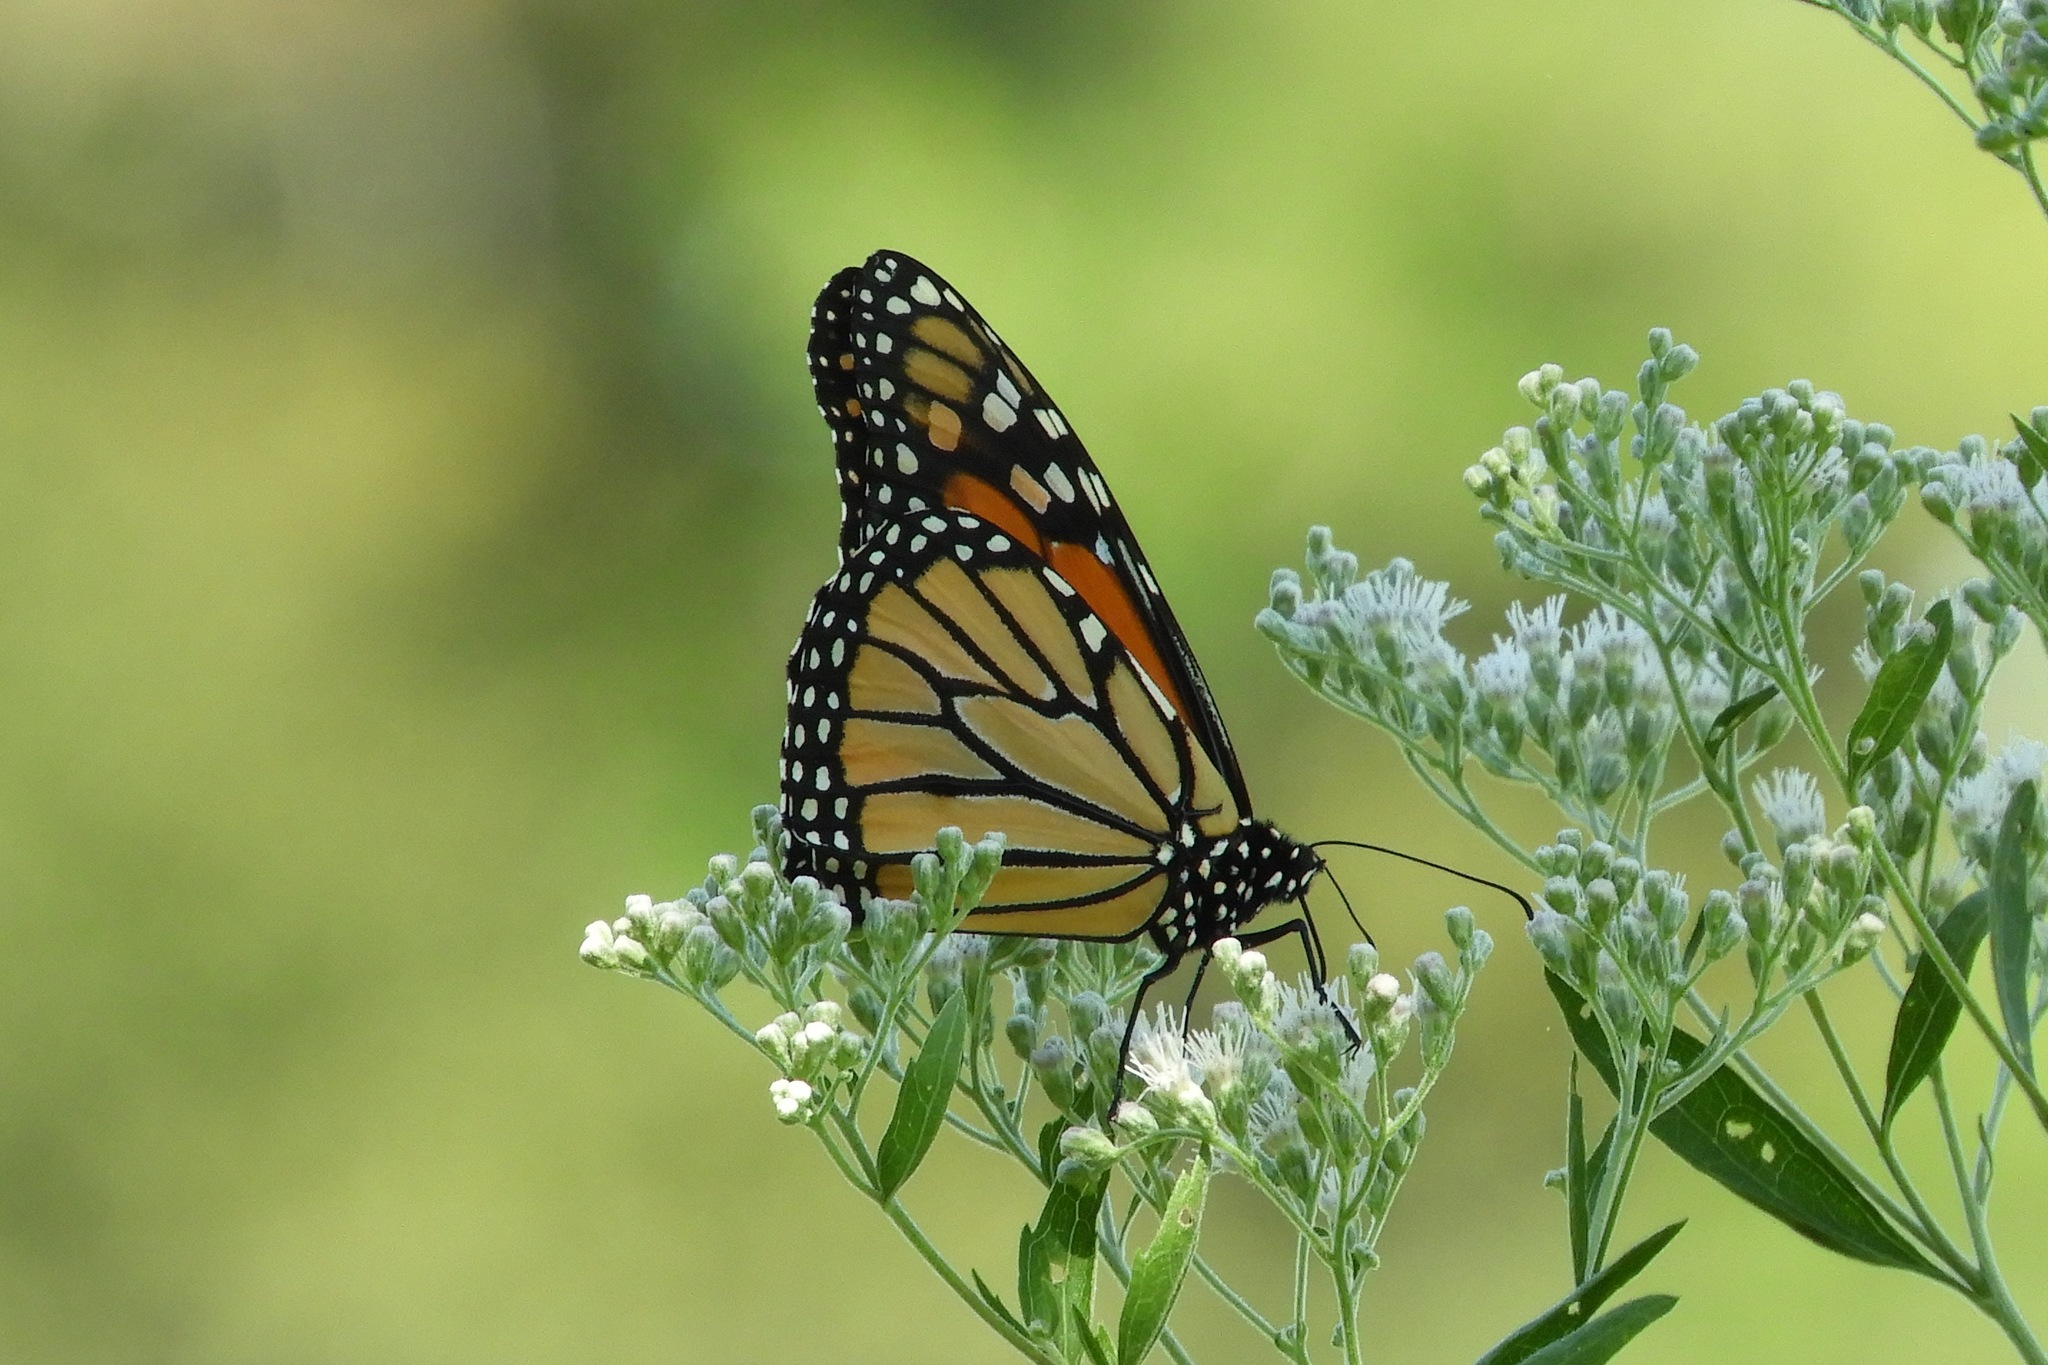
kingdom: Animalia
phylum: Arthropoda
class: Insecta
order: Lepidoptera
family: Nymphalidae
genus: Danaus
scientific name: Danaus plexippus
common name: Monarch
